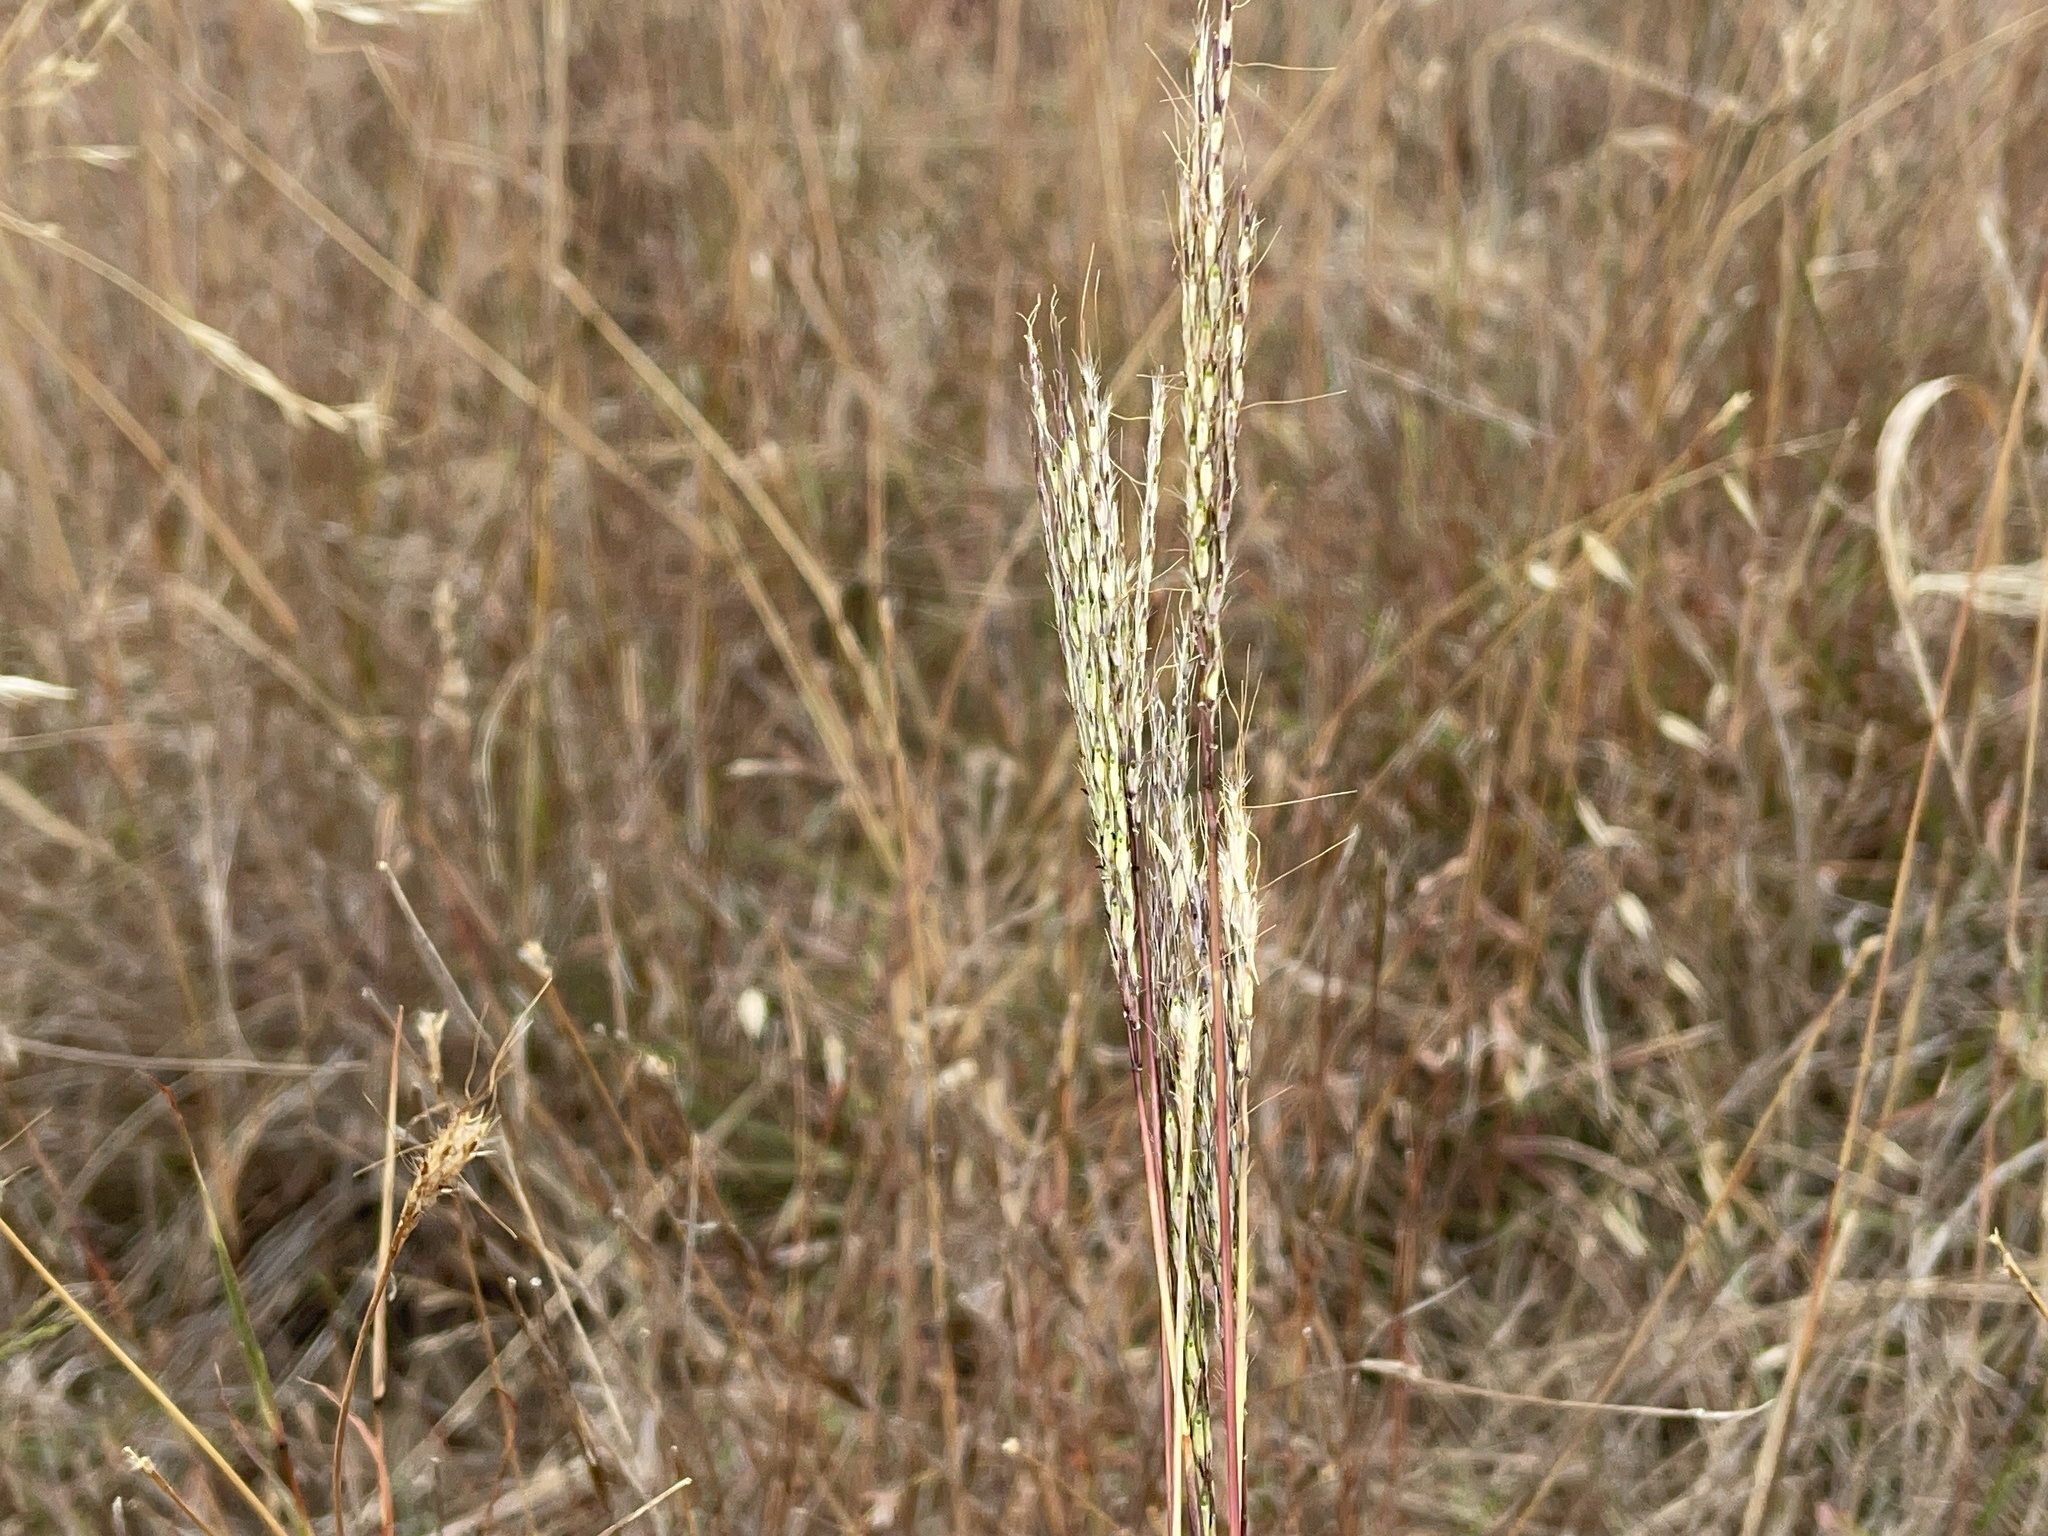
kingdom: Plantae
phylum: Tracheophyta
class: Liliopsida
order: Poales
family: Poaceae
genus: Bothriochloa
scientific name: Bothriochloa macra
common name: Pitted beard grass
